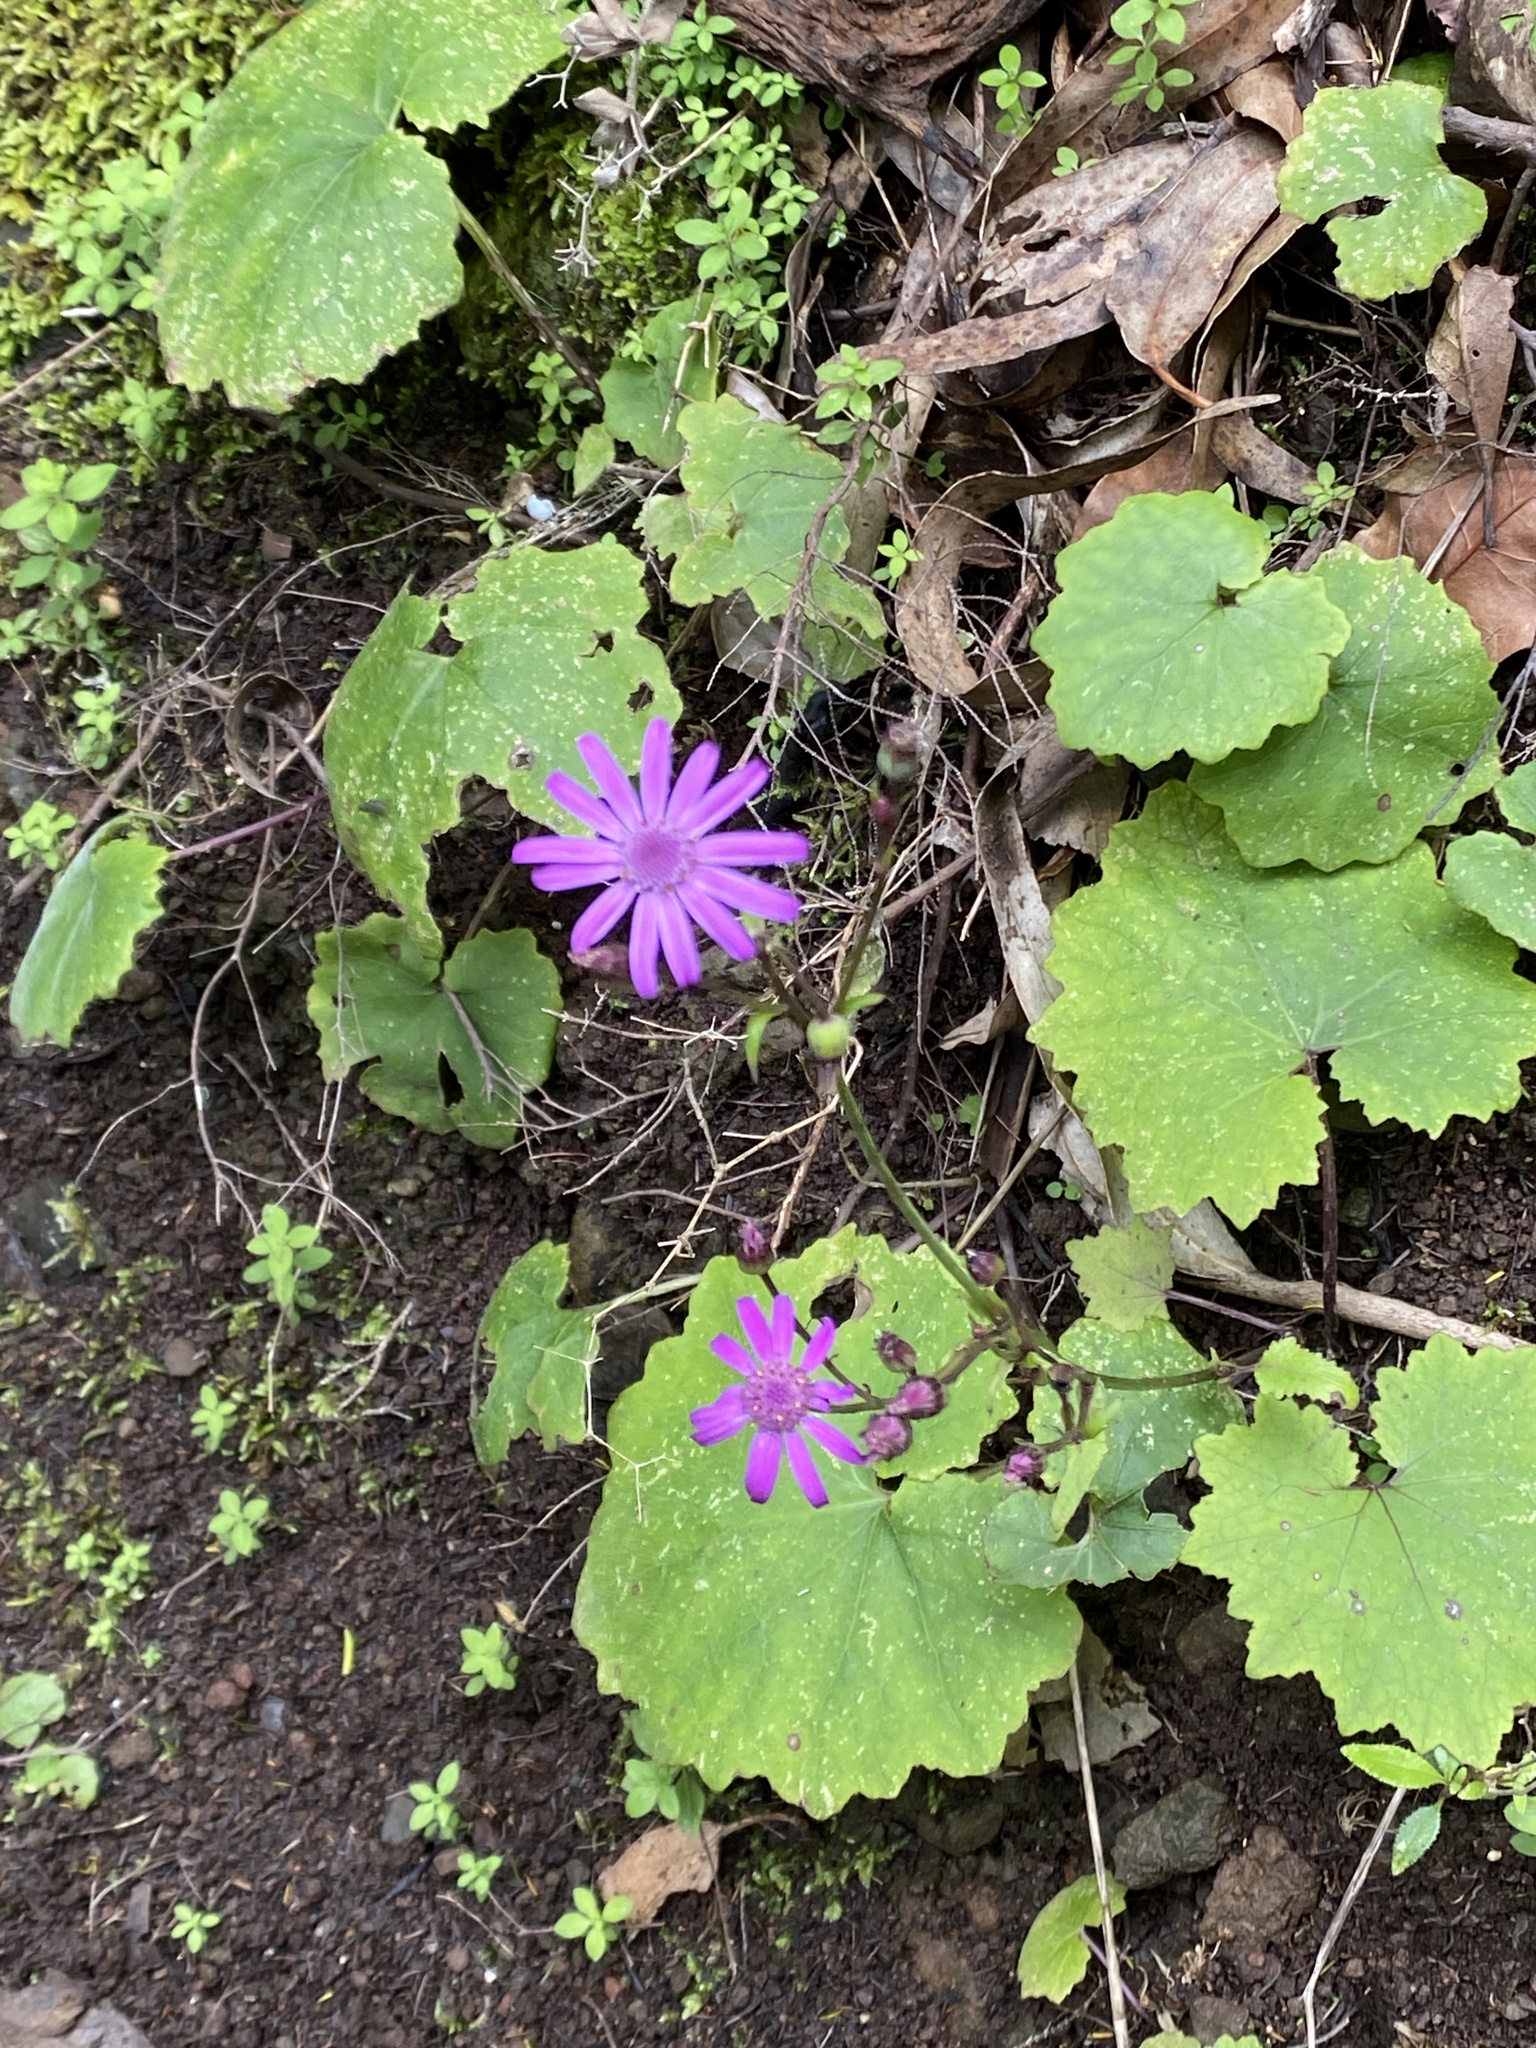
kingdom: Plantae
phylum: Tracheophyta
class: Magnoliopsida
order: Asterales
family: Asteraceae
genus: Pericallis
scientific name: Pericallis tussilaginis
